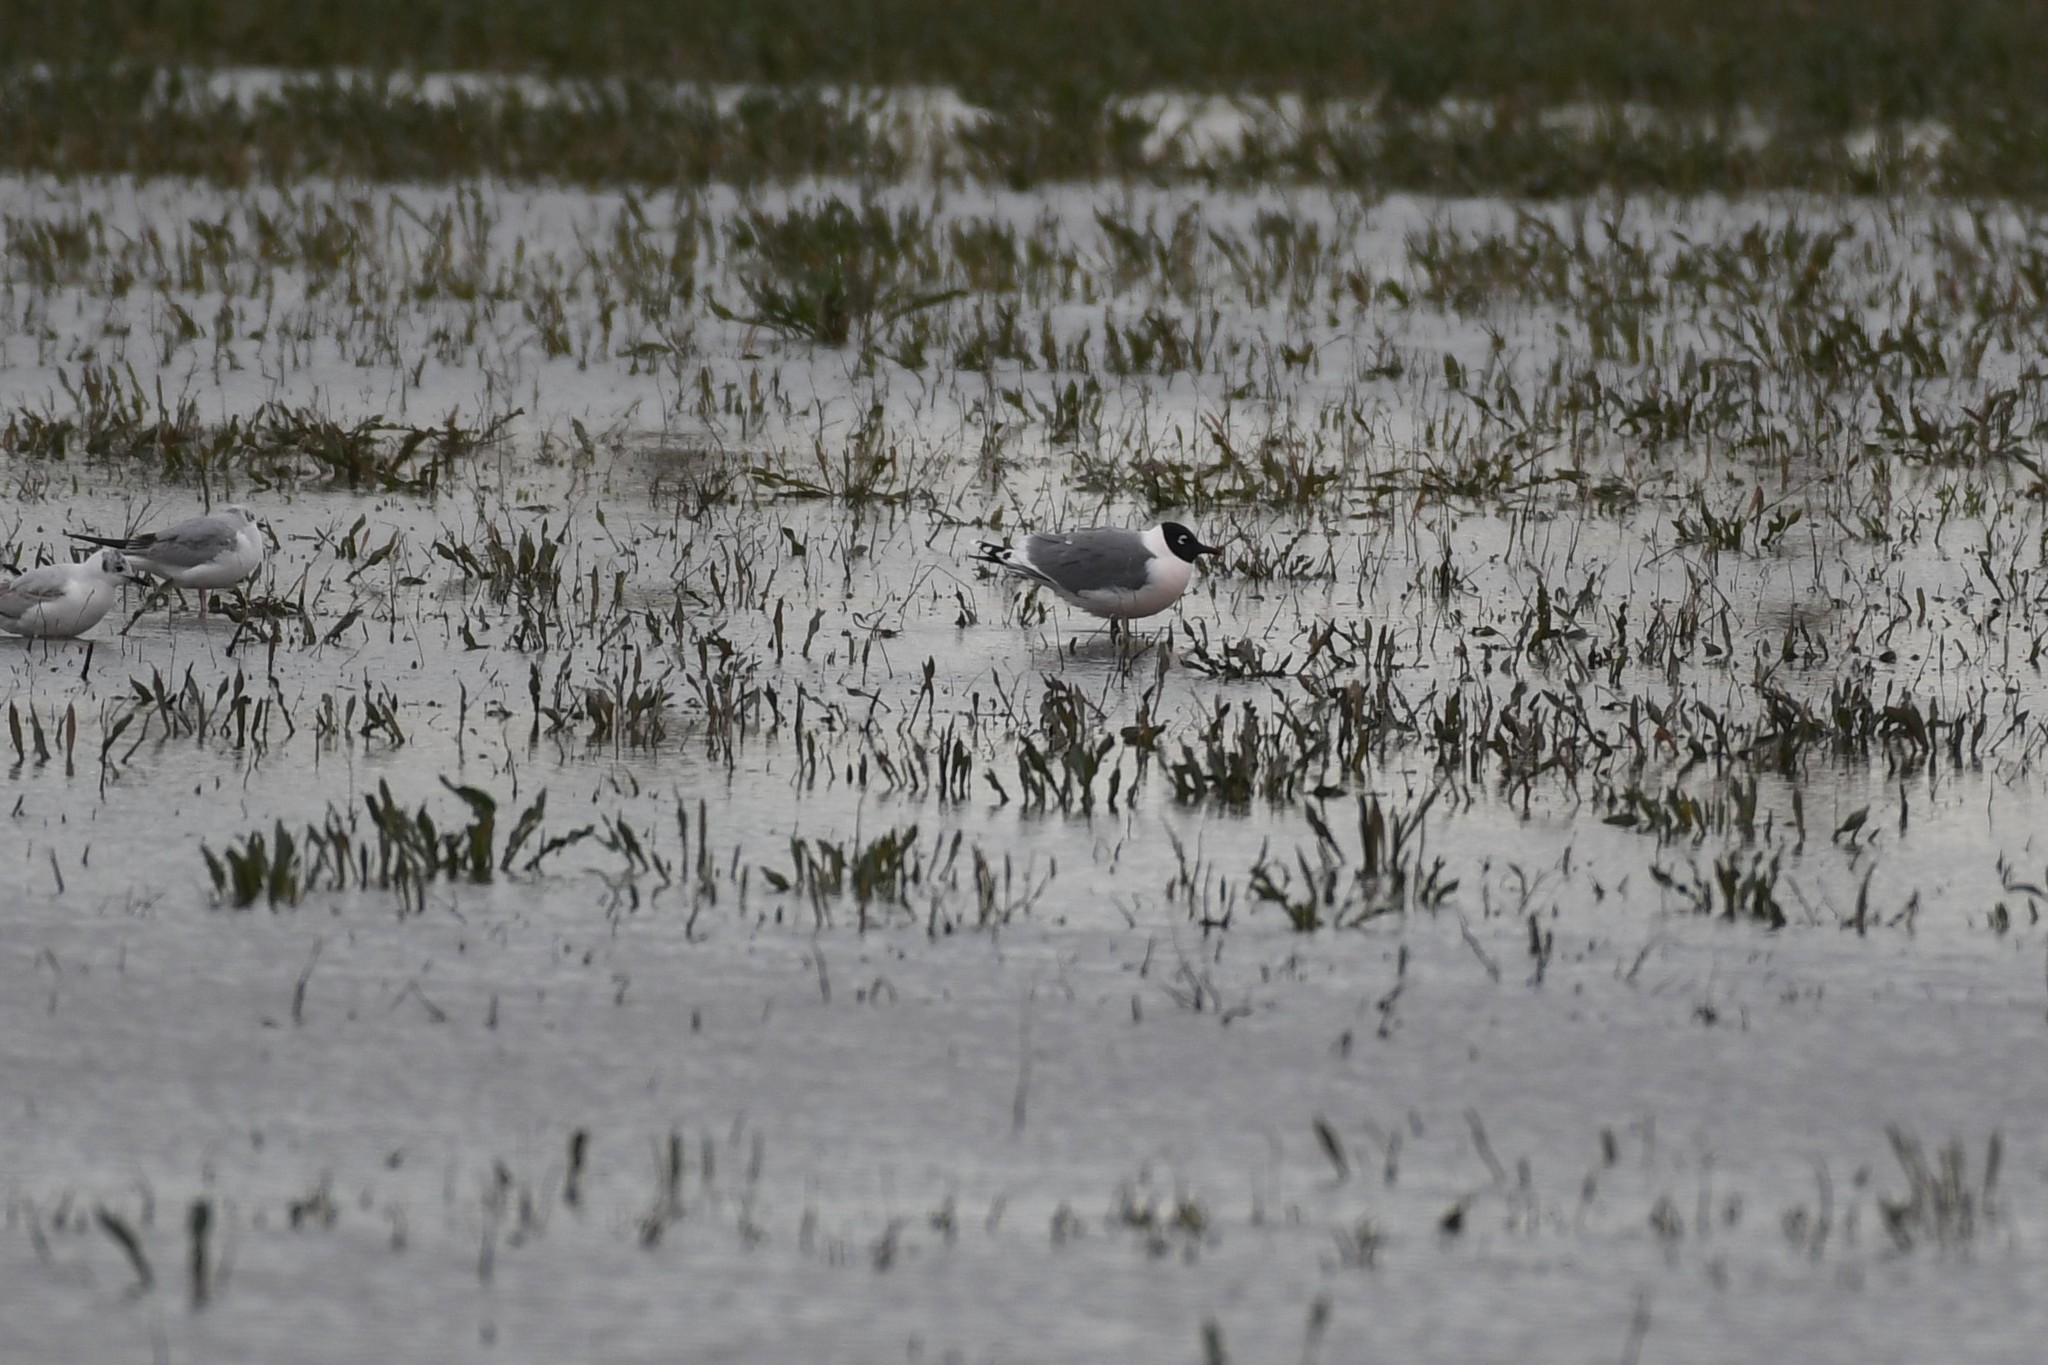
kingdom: Animalia
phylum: Chordata
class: Aves
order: Charadriiformes
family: Laridae
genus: Leucophaeus
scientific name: Leucophaeus pipixcan
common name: Franklin's gull
